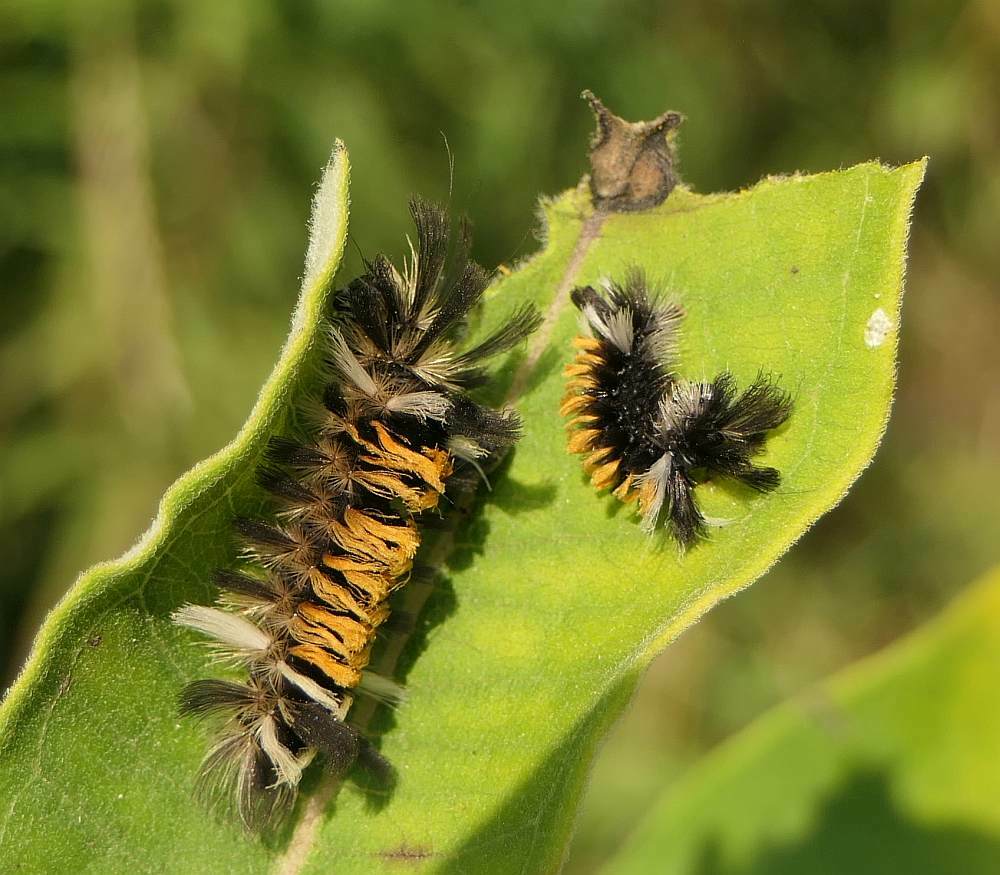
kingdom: Animalia
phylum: Arthropoda
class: Insecta
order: Lepidoptera
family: Erebidae
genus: Euchaetes
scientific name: Euchaetes egle
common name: Milkweed tussock moth
